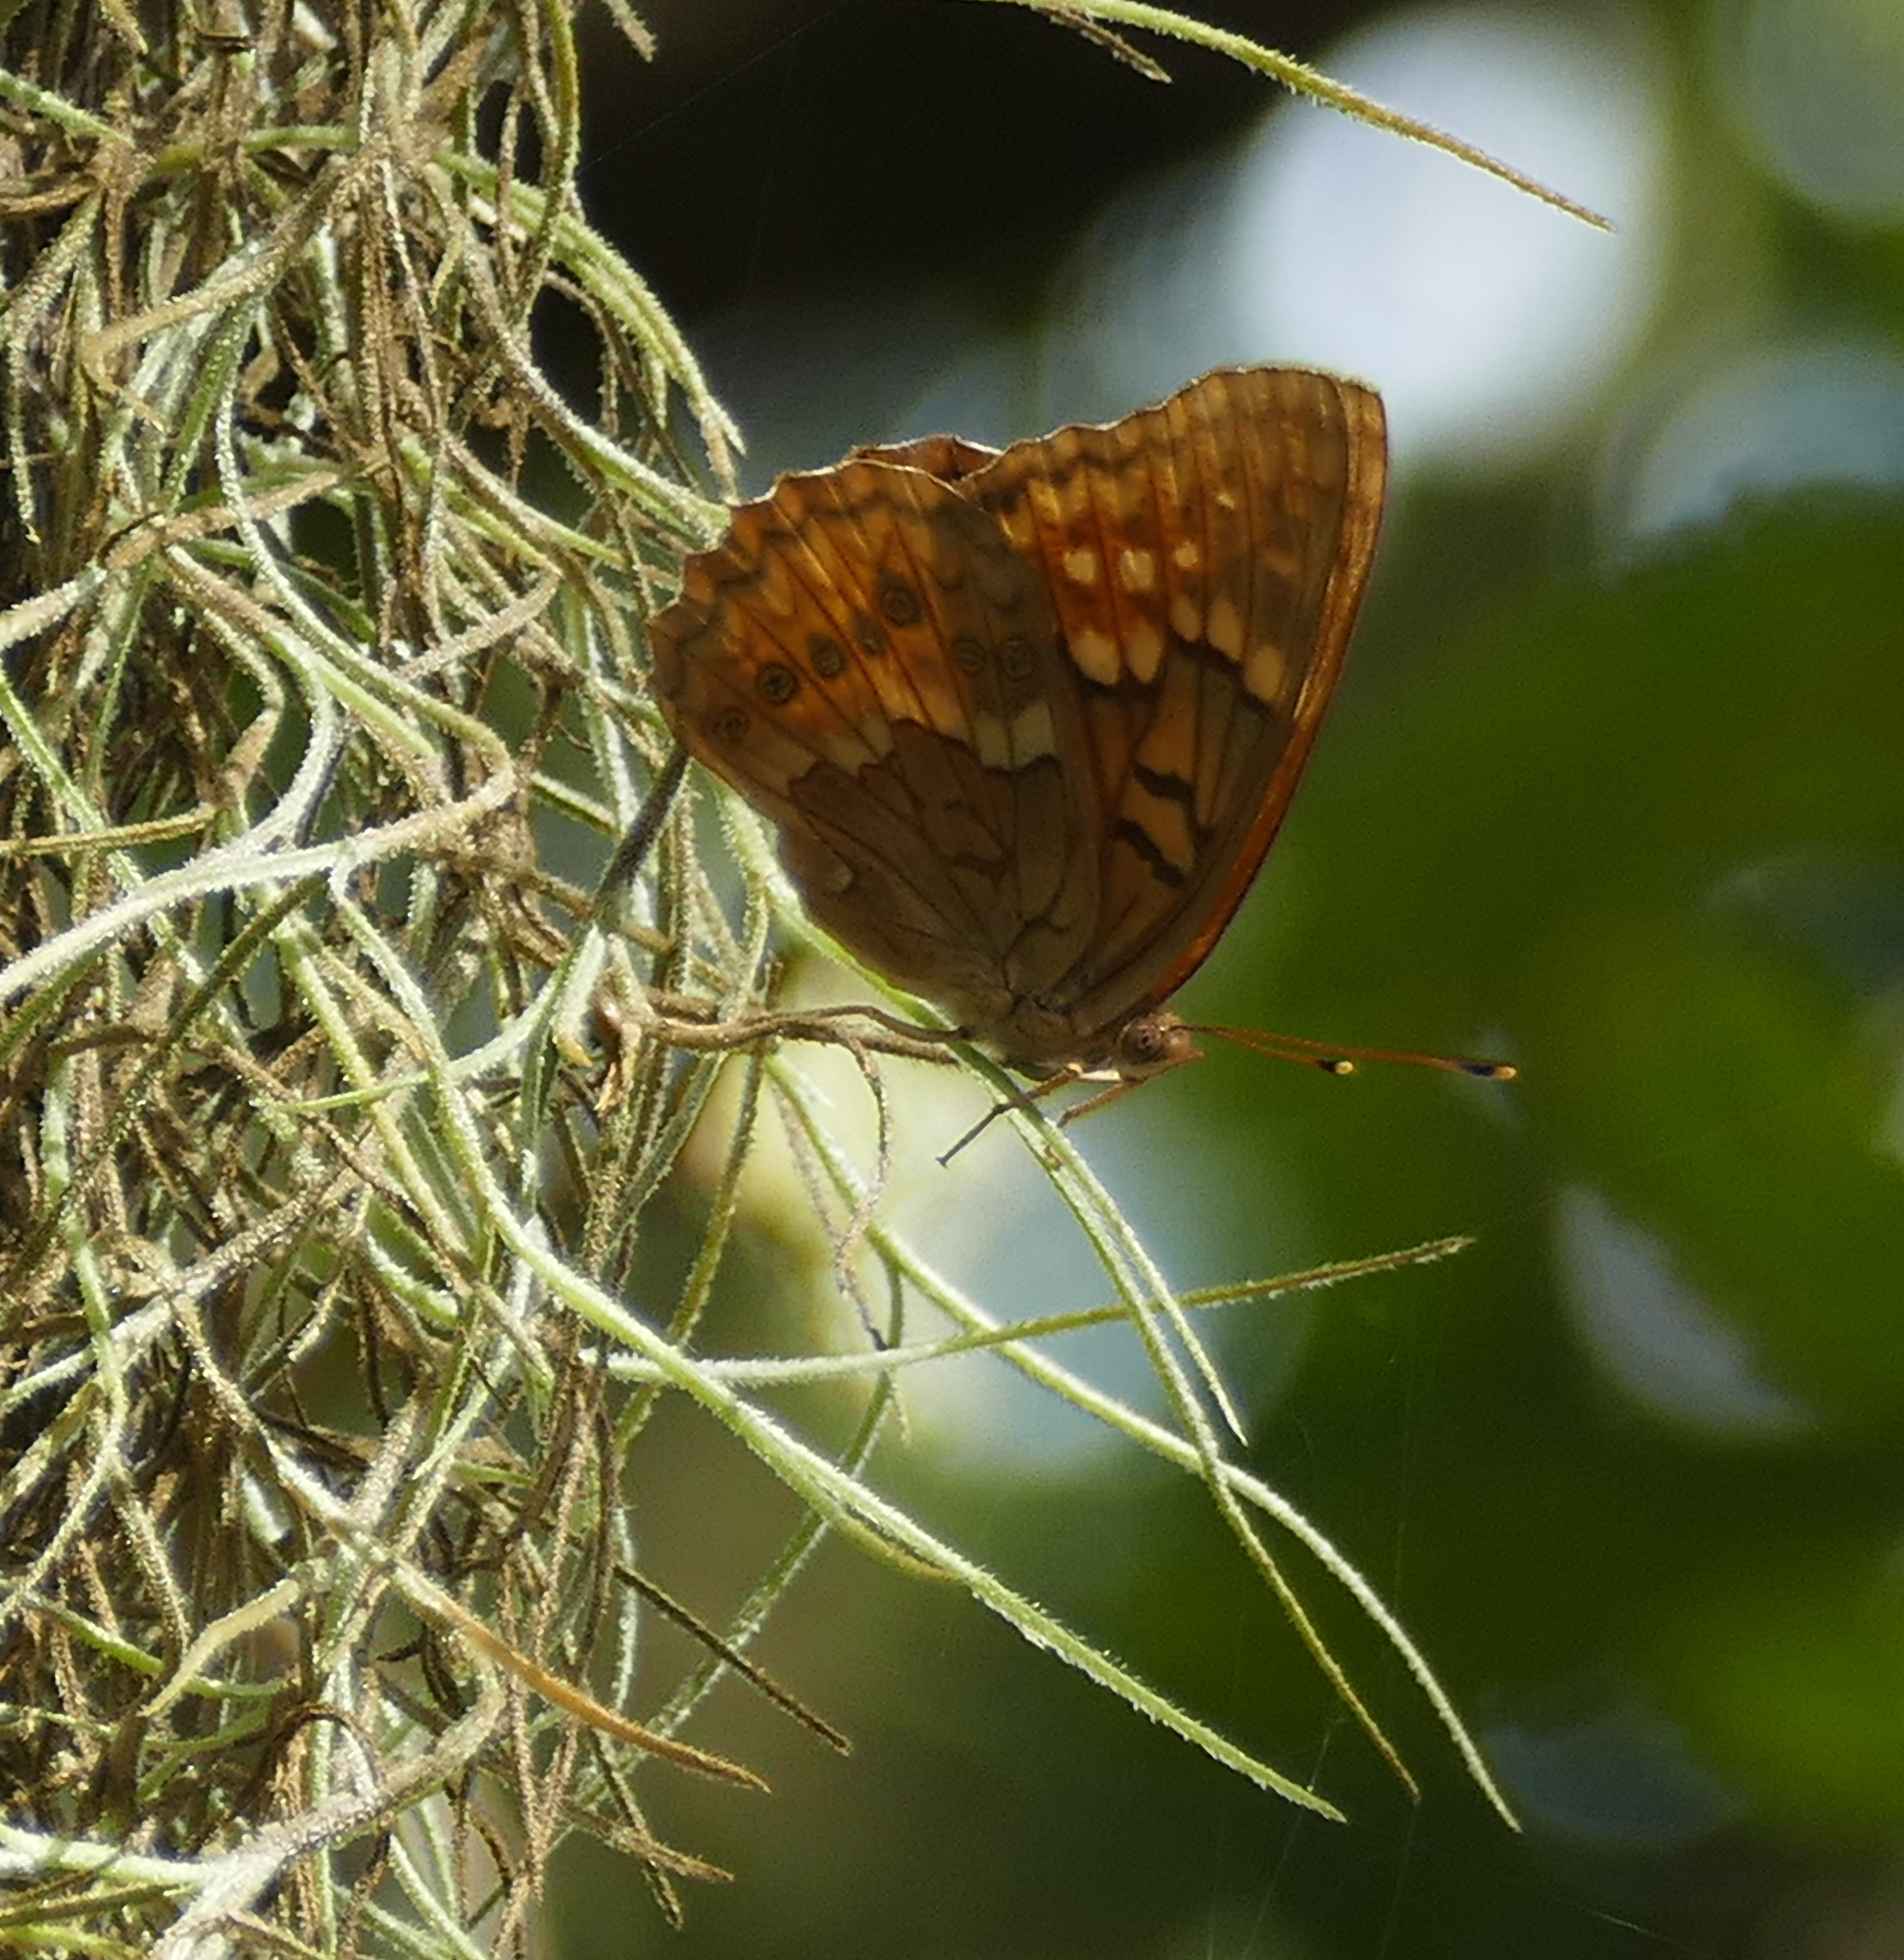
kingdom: Animalia
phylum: Arthropoda
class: Insecta
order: Lepidoptera
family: Nymphalidae
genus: Asterocampa
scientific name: Asterocampa clyton
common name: Tawny emperor
